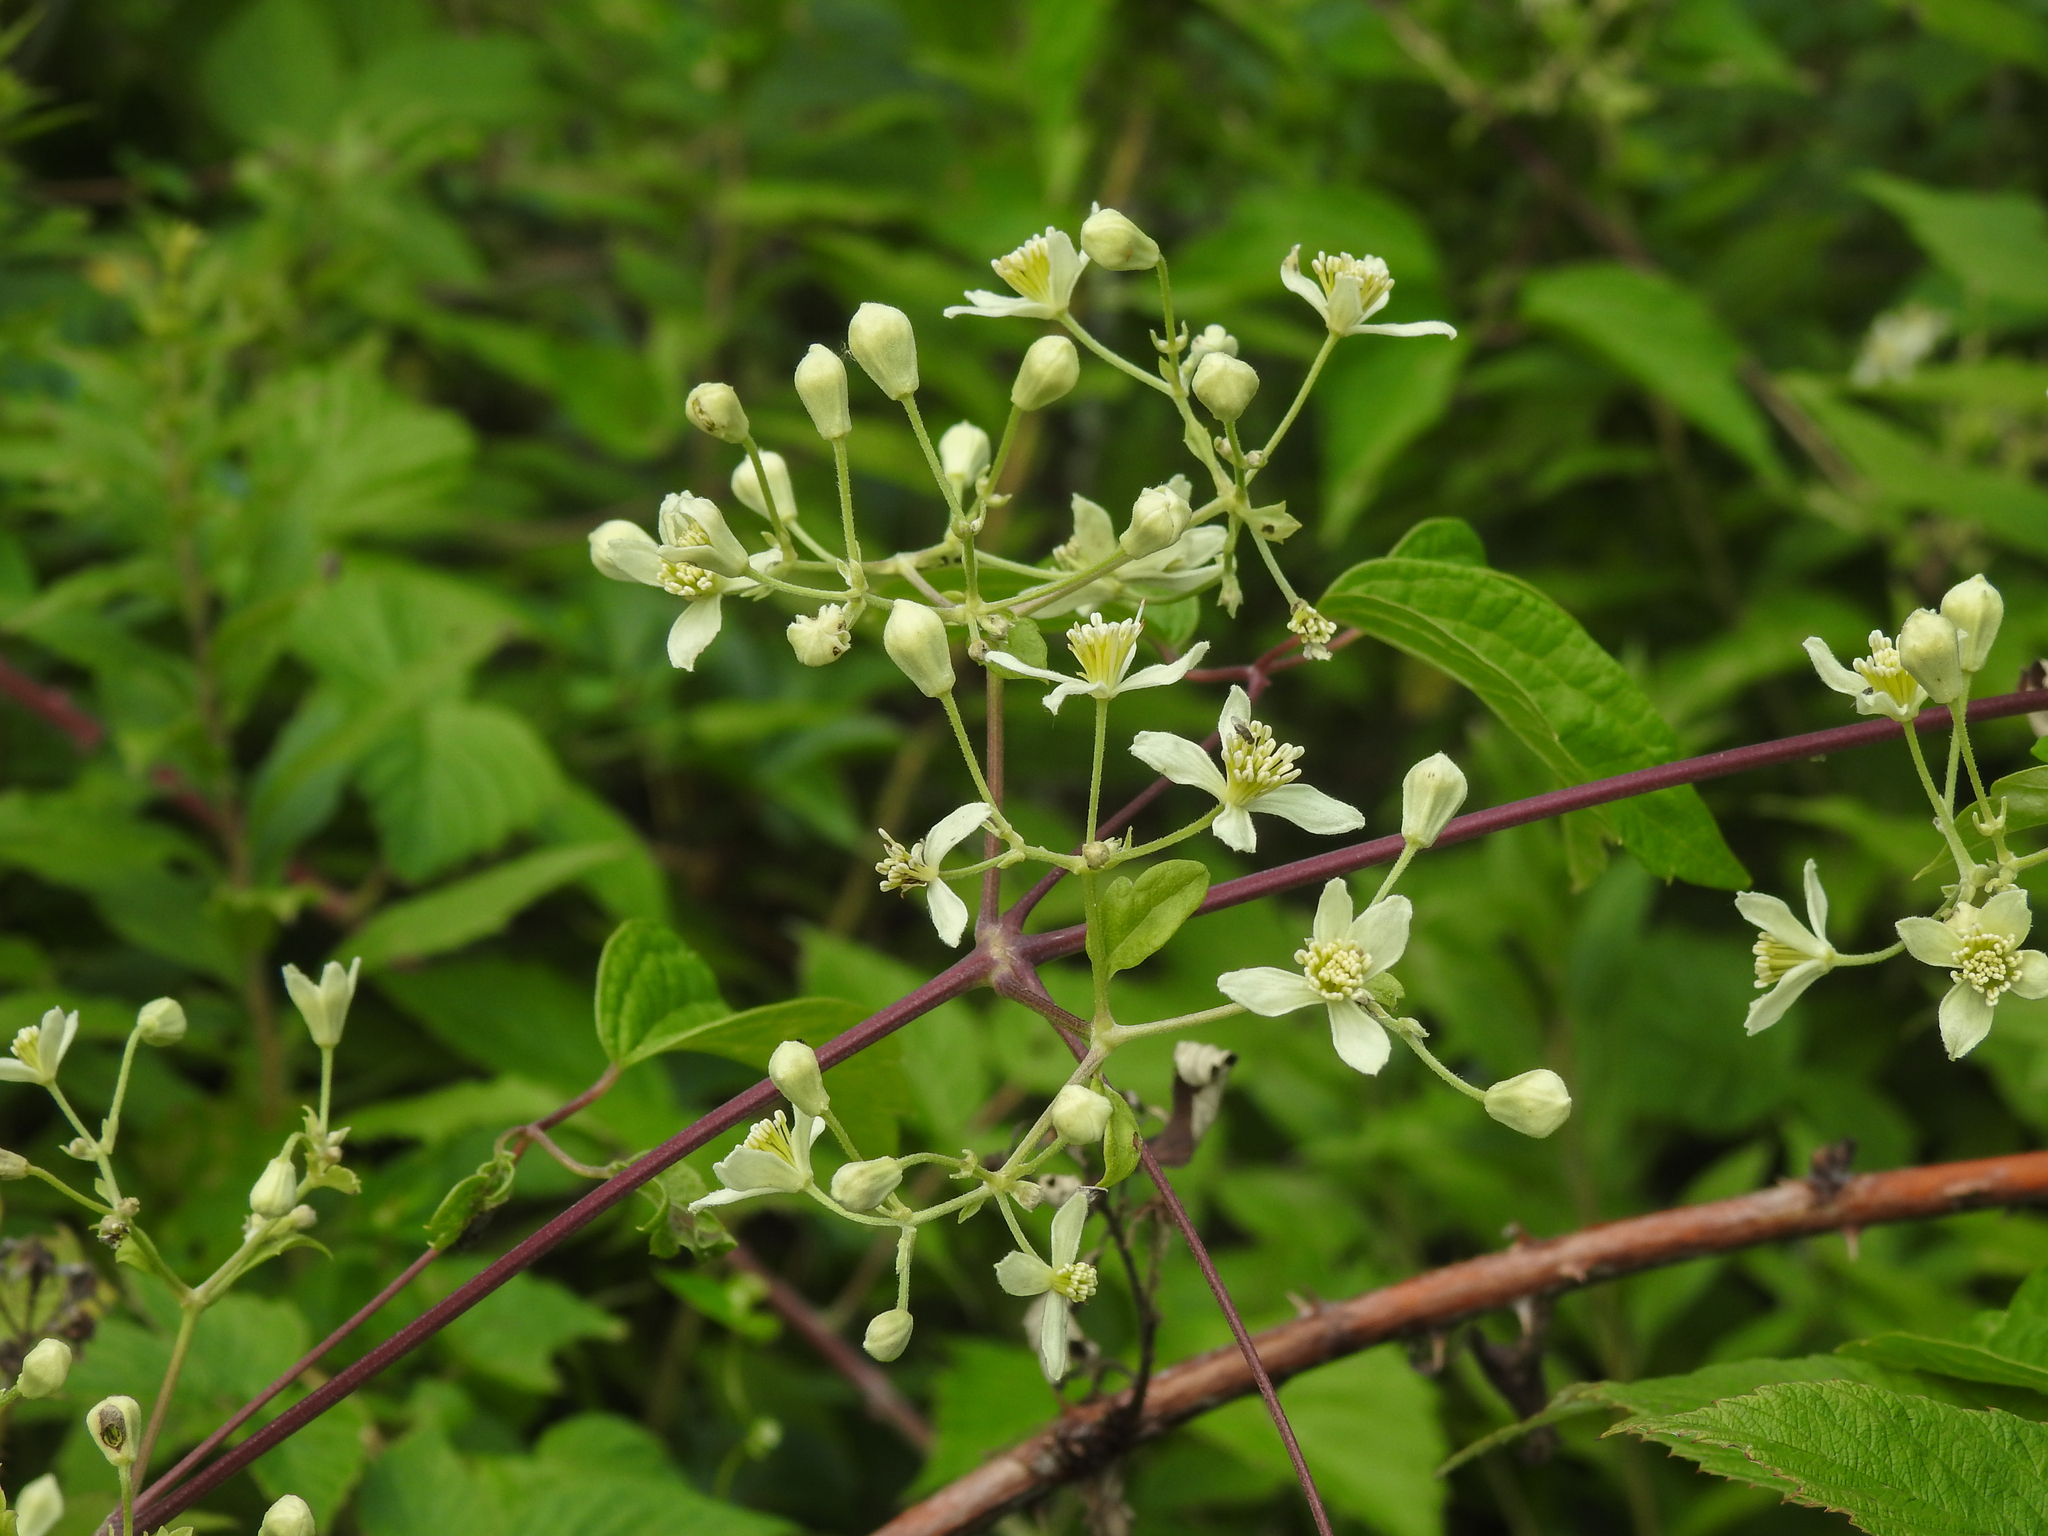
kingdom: Plantae
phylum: Tracheophyta
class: Magnoliopsida
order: Ranunculales
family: Ranunculaceae
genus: Clematis
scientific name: Clematis virginiana
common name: Virgin's-bower
